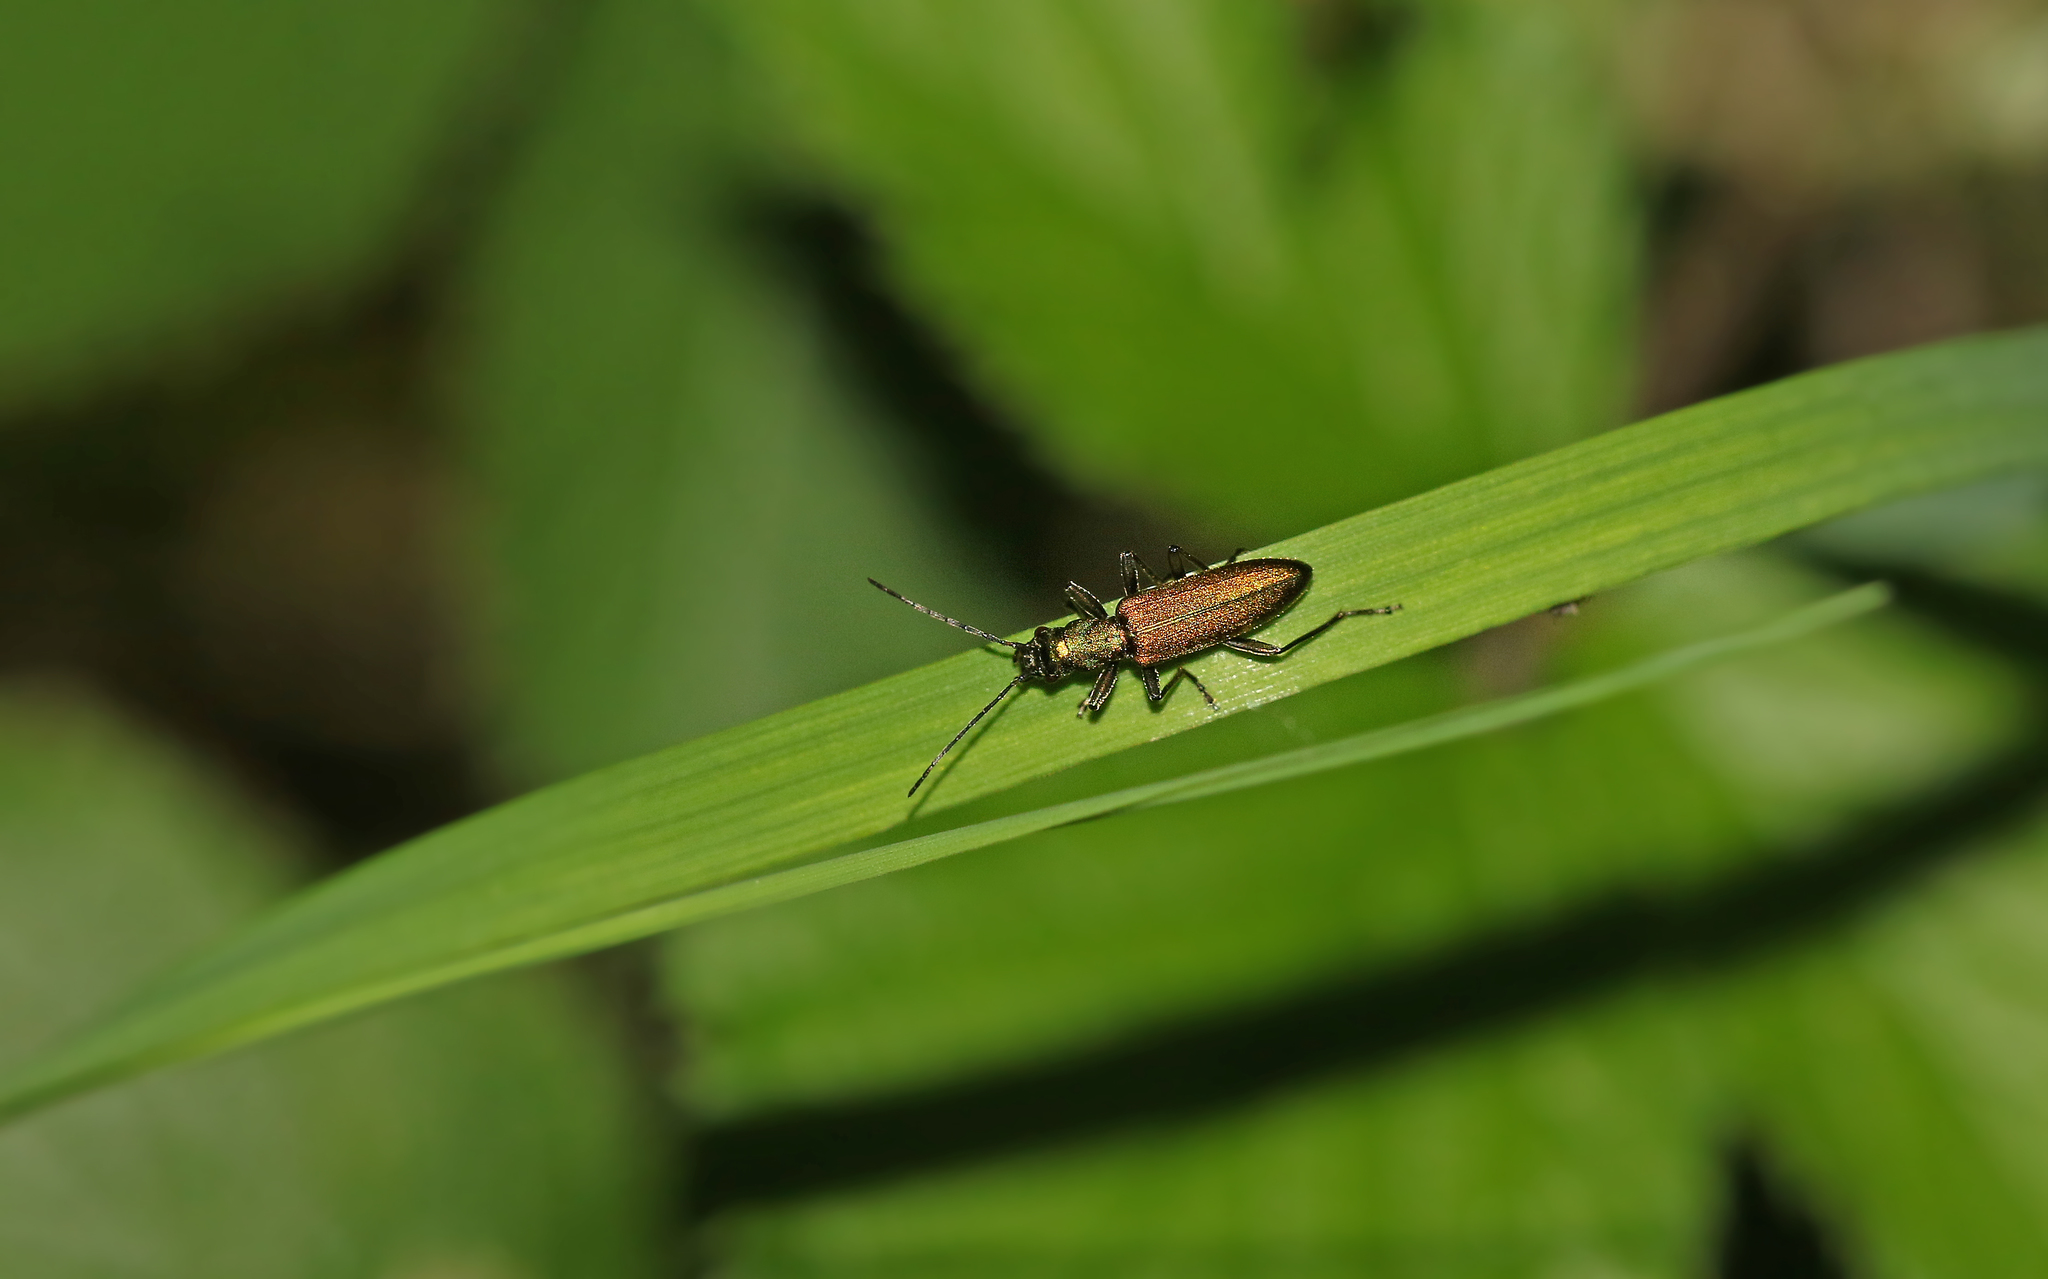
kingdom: Animalia
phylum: Arthropoda
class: Insecta
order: Coleoptera
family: Oedemeridae
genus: Chrysanthia
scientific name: Chrysanthia viridissima
